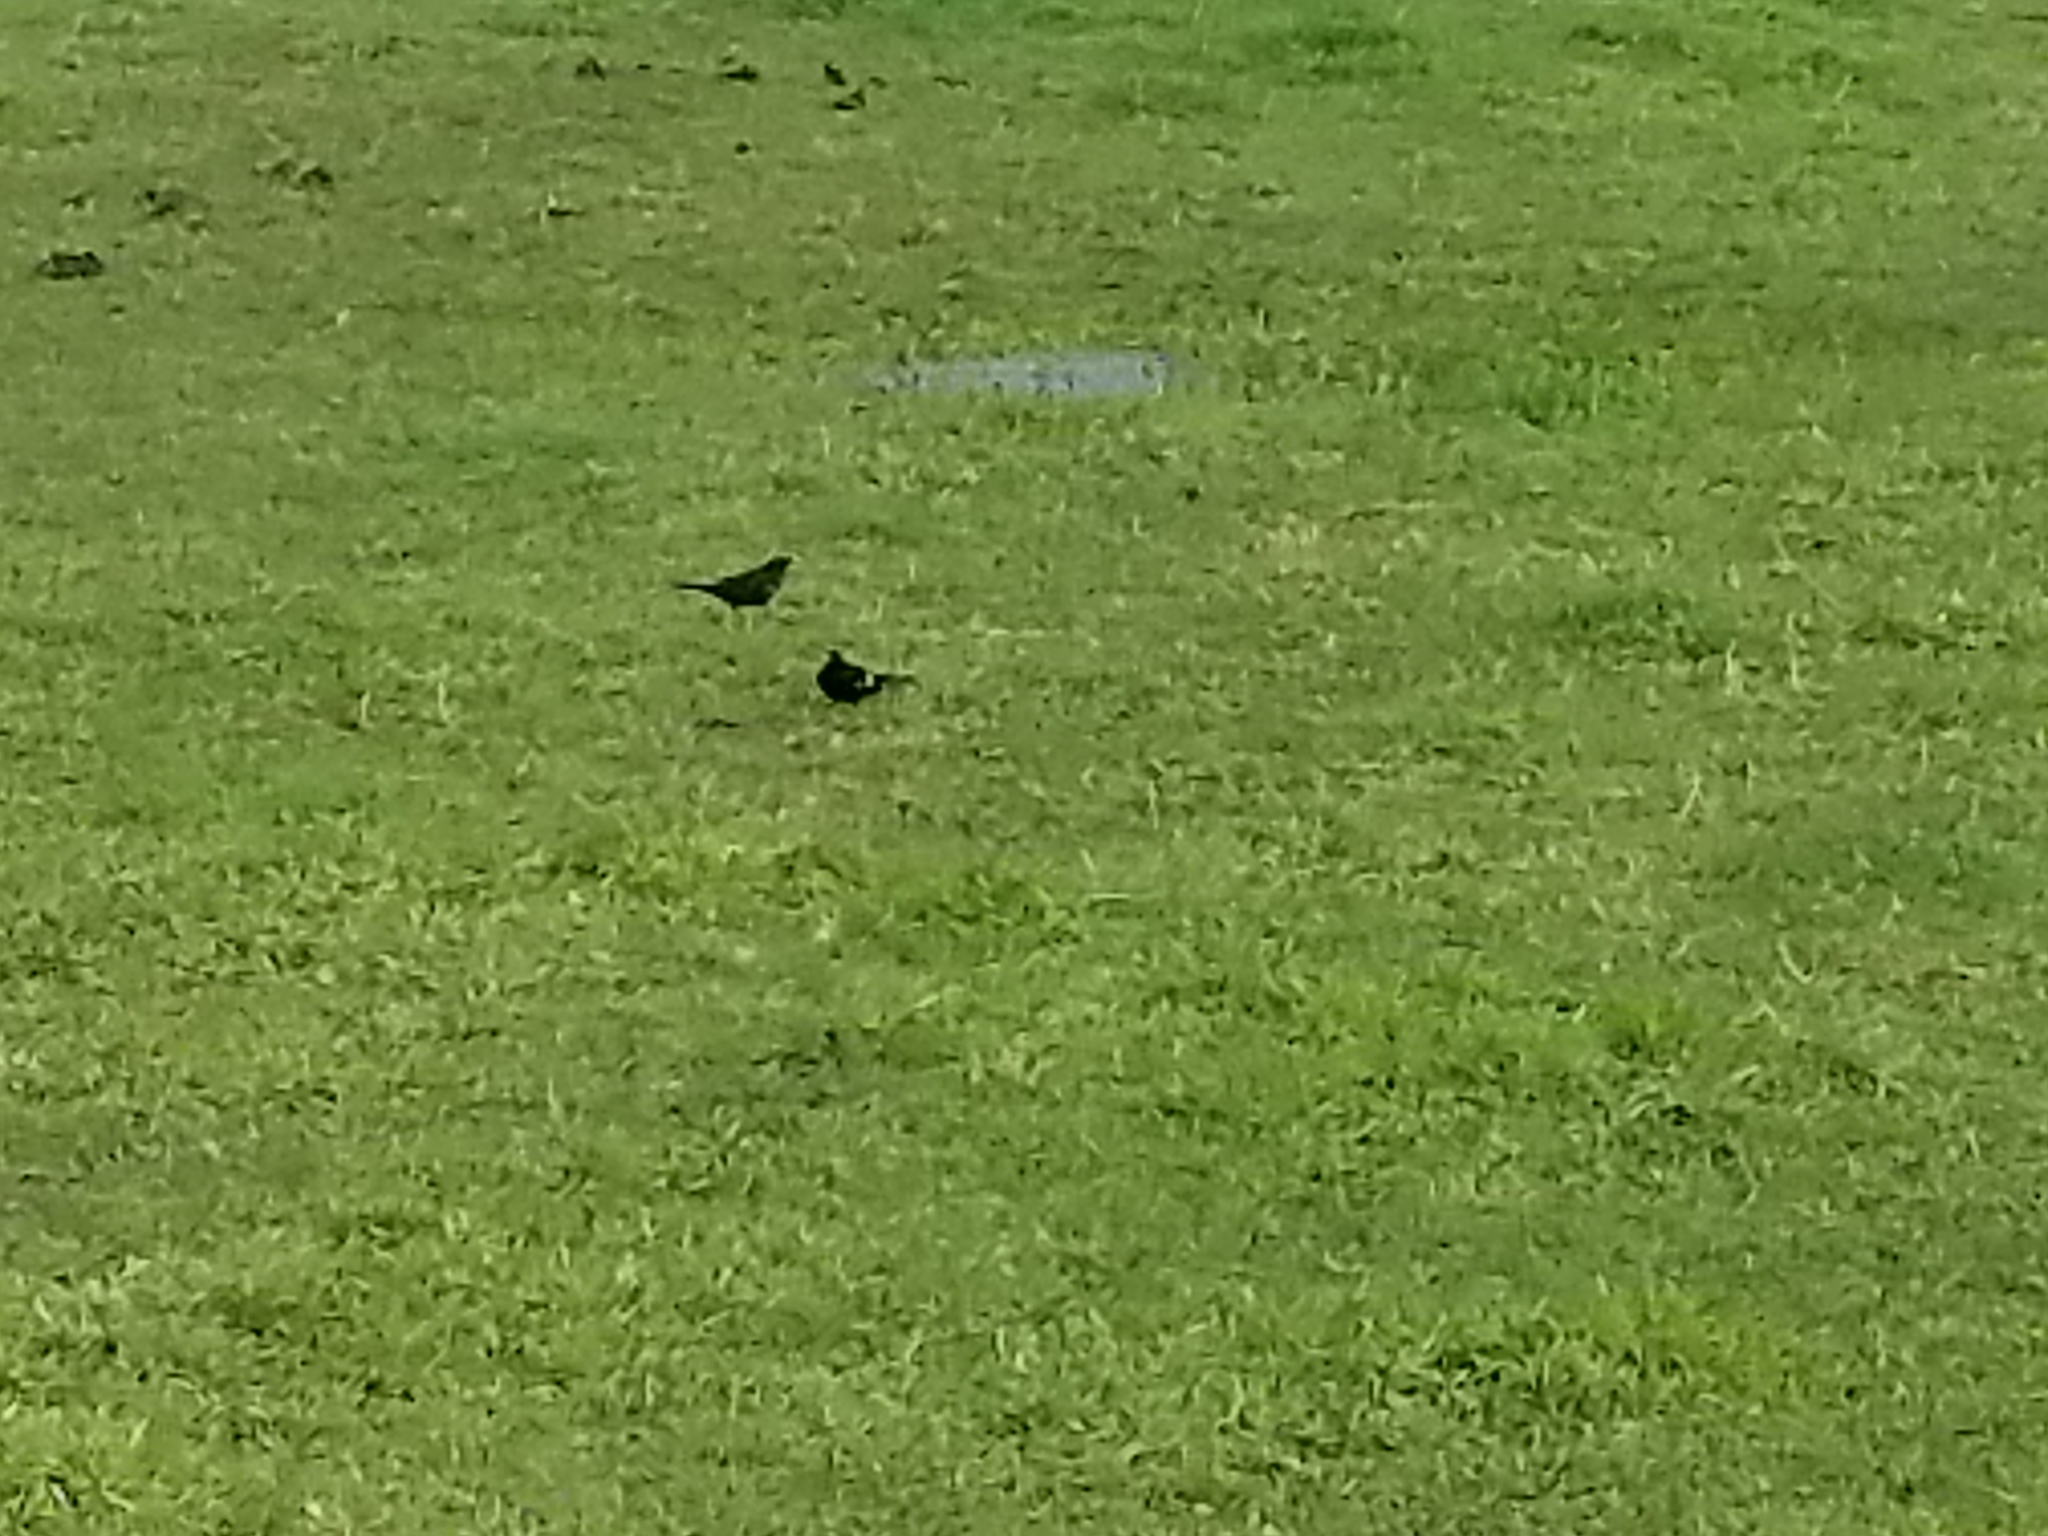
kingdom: Animalia
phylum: Chordata
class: Aves
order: Passeriformes
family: Turdidae
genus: Turdus
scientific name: Turdus merula
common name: Common blackbird
